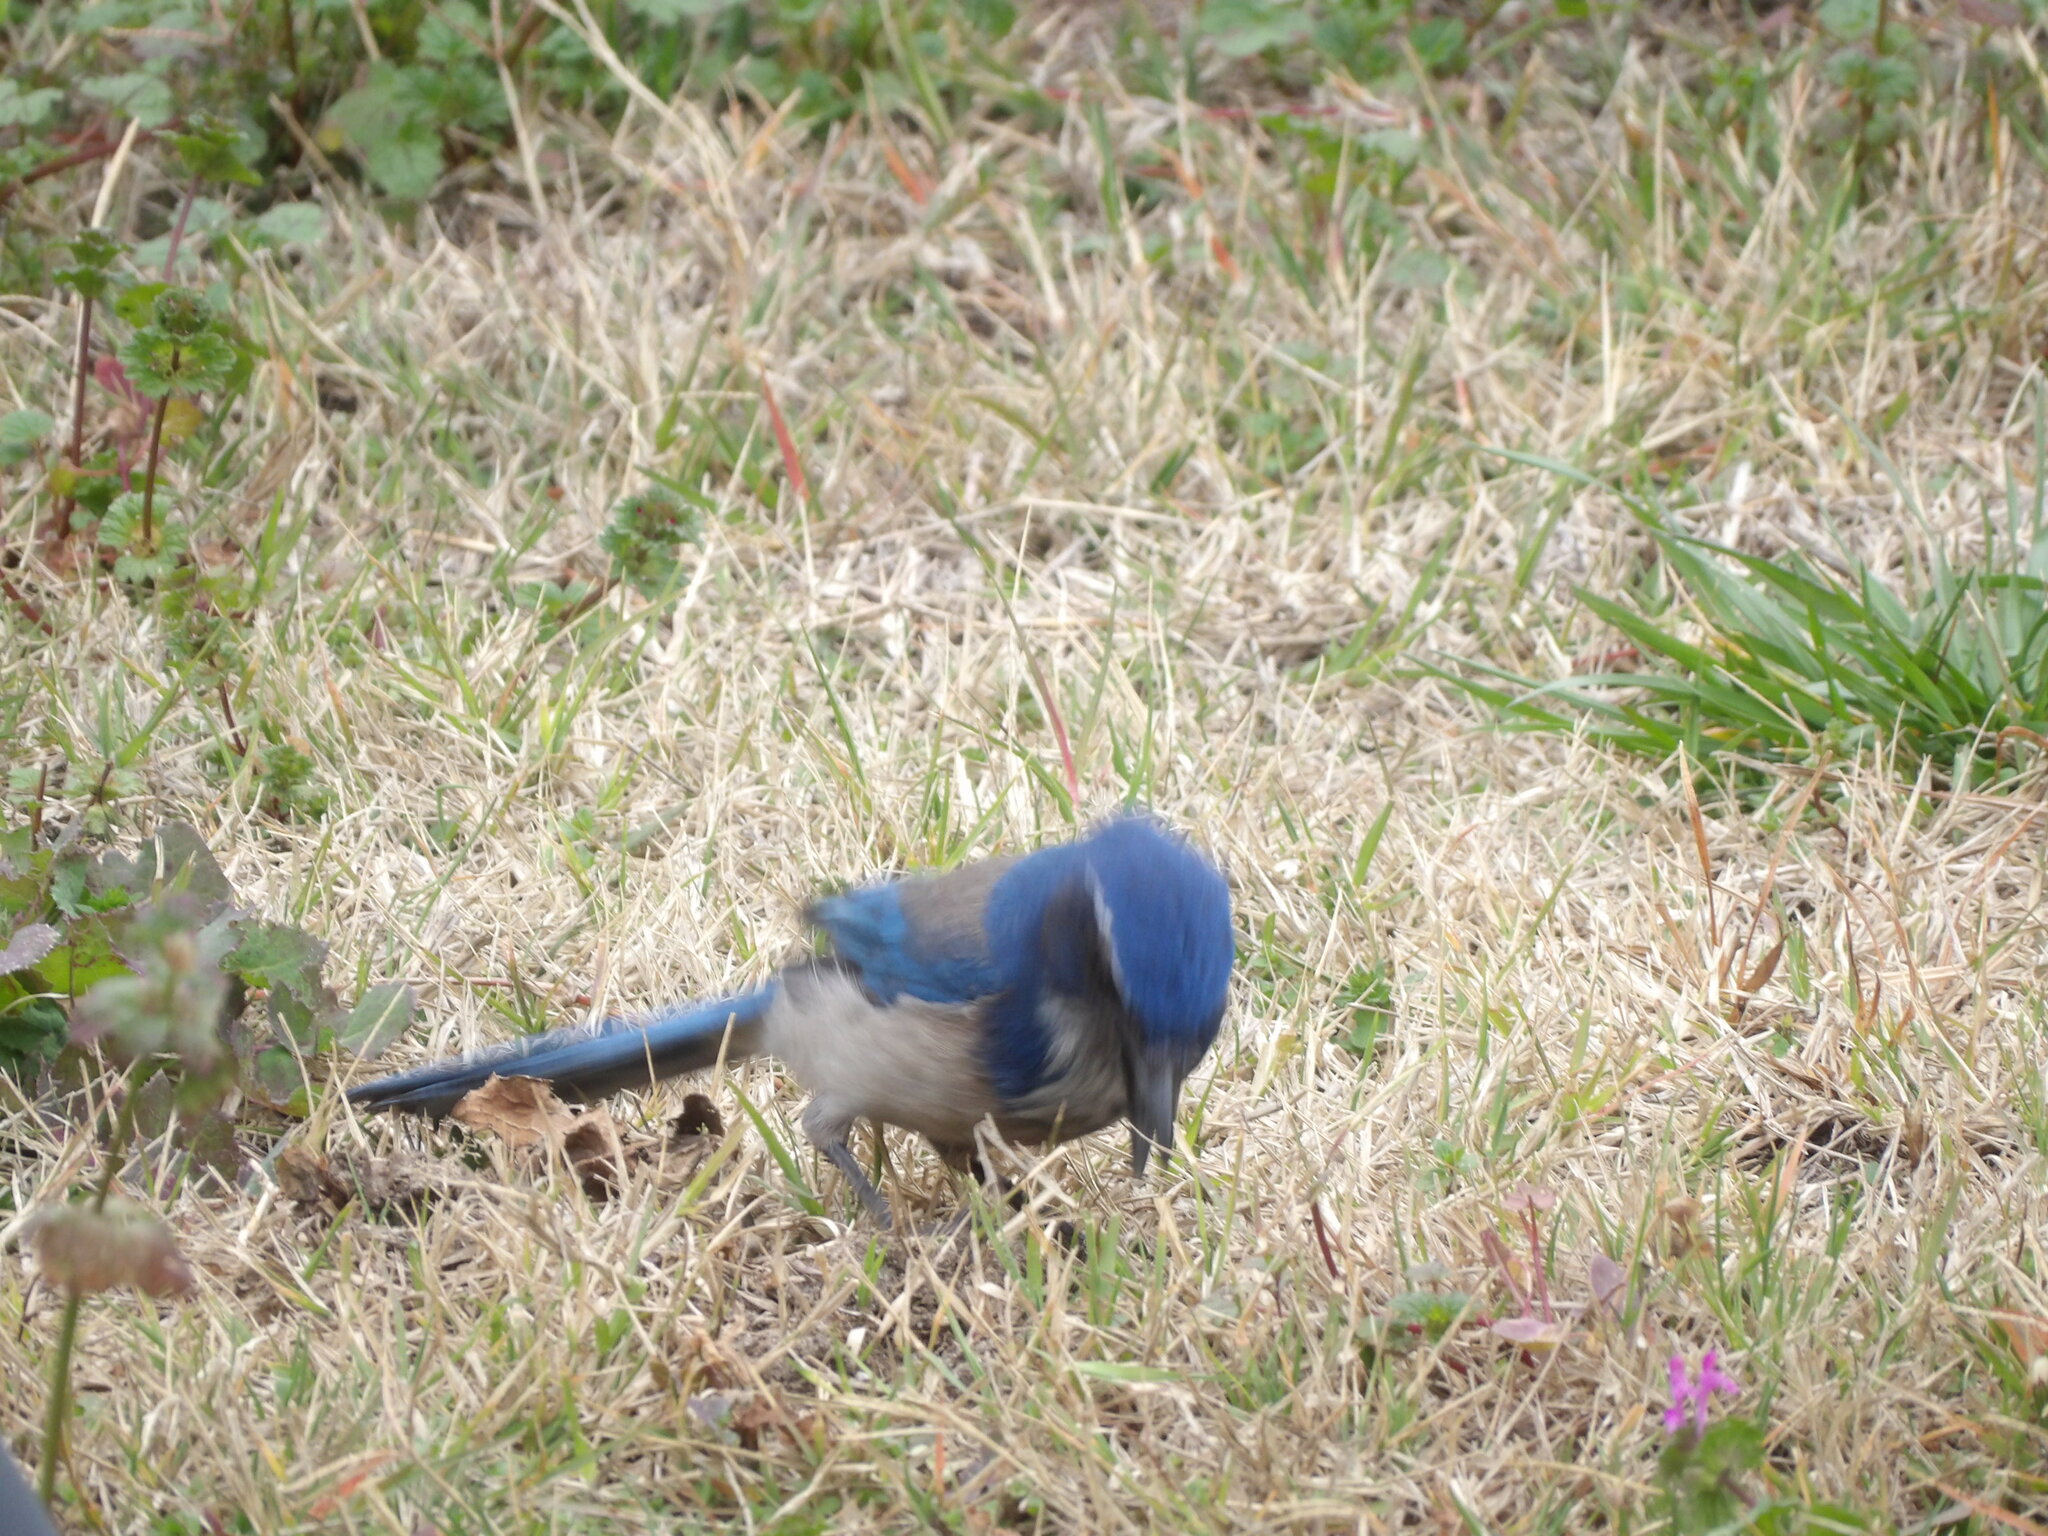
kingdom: Animalia
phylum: Chordata
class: Aves
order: Passeriformes
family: Corvidae
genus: Aphelocoma
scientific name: Aphelocoma californica
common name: California scrub-jay
